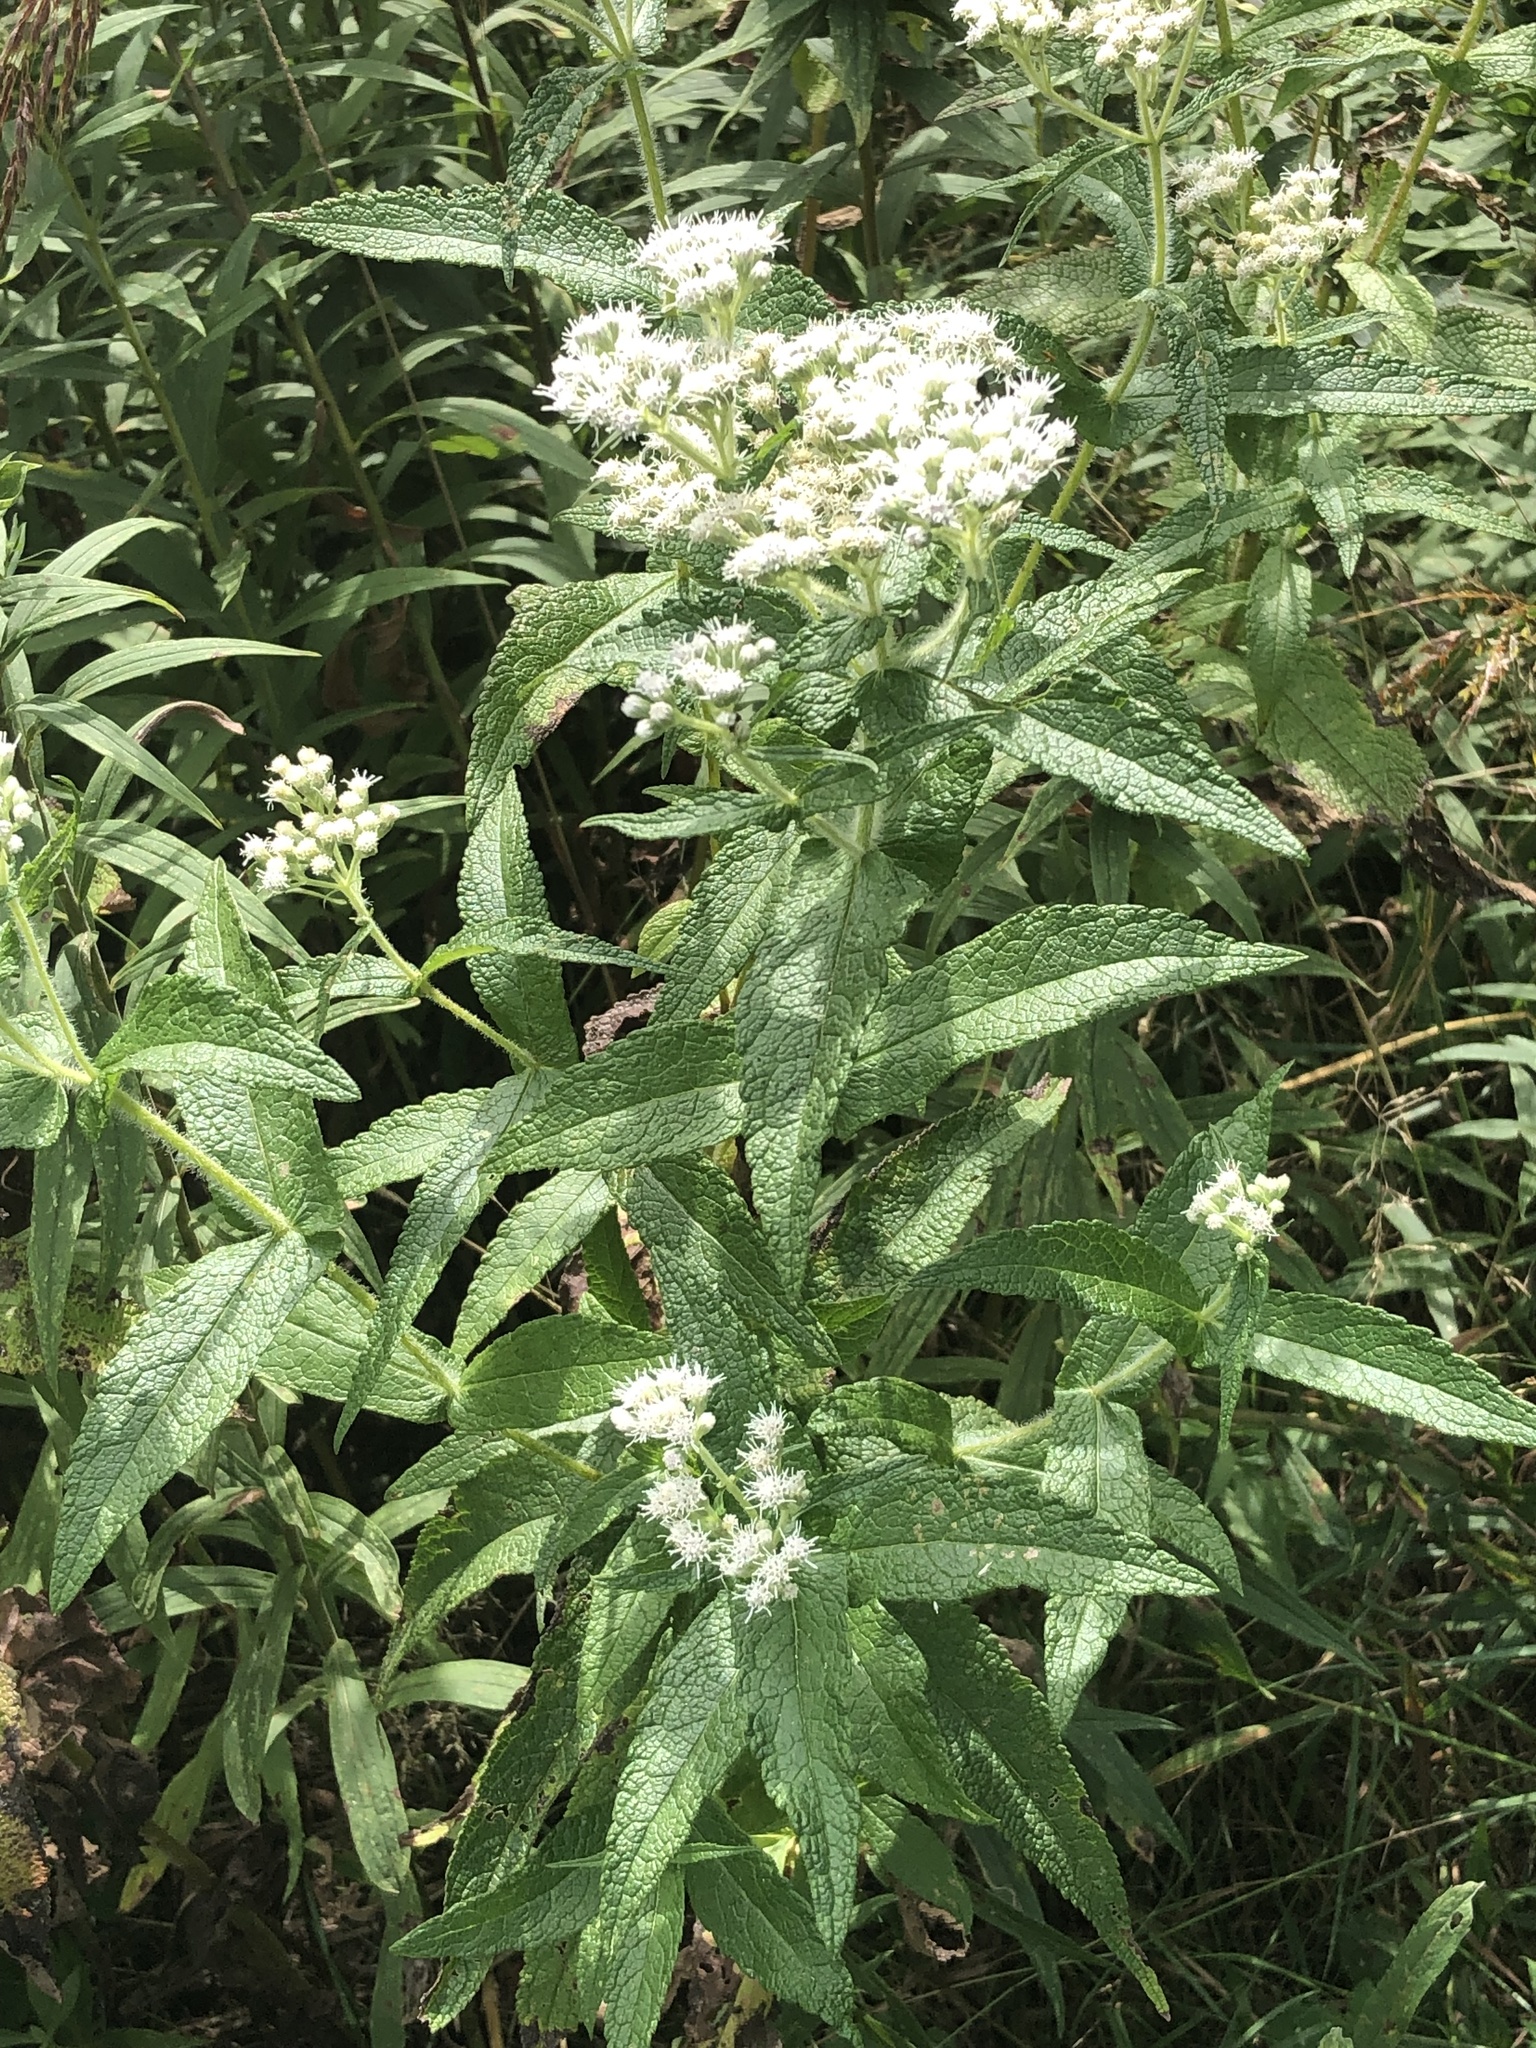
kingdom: Plantae
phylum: Tracheophyta
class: Magnoliopsida
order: Asterales
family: Asteraceae
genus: Eupatorium
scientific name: Eupatorium perfoliatum
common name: Boneset
